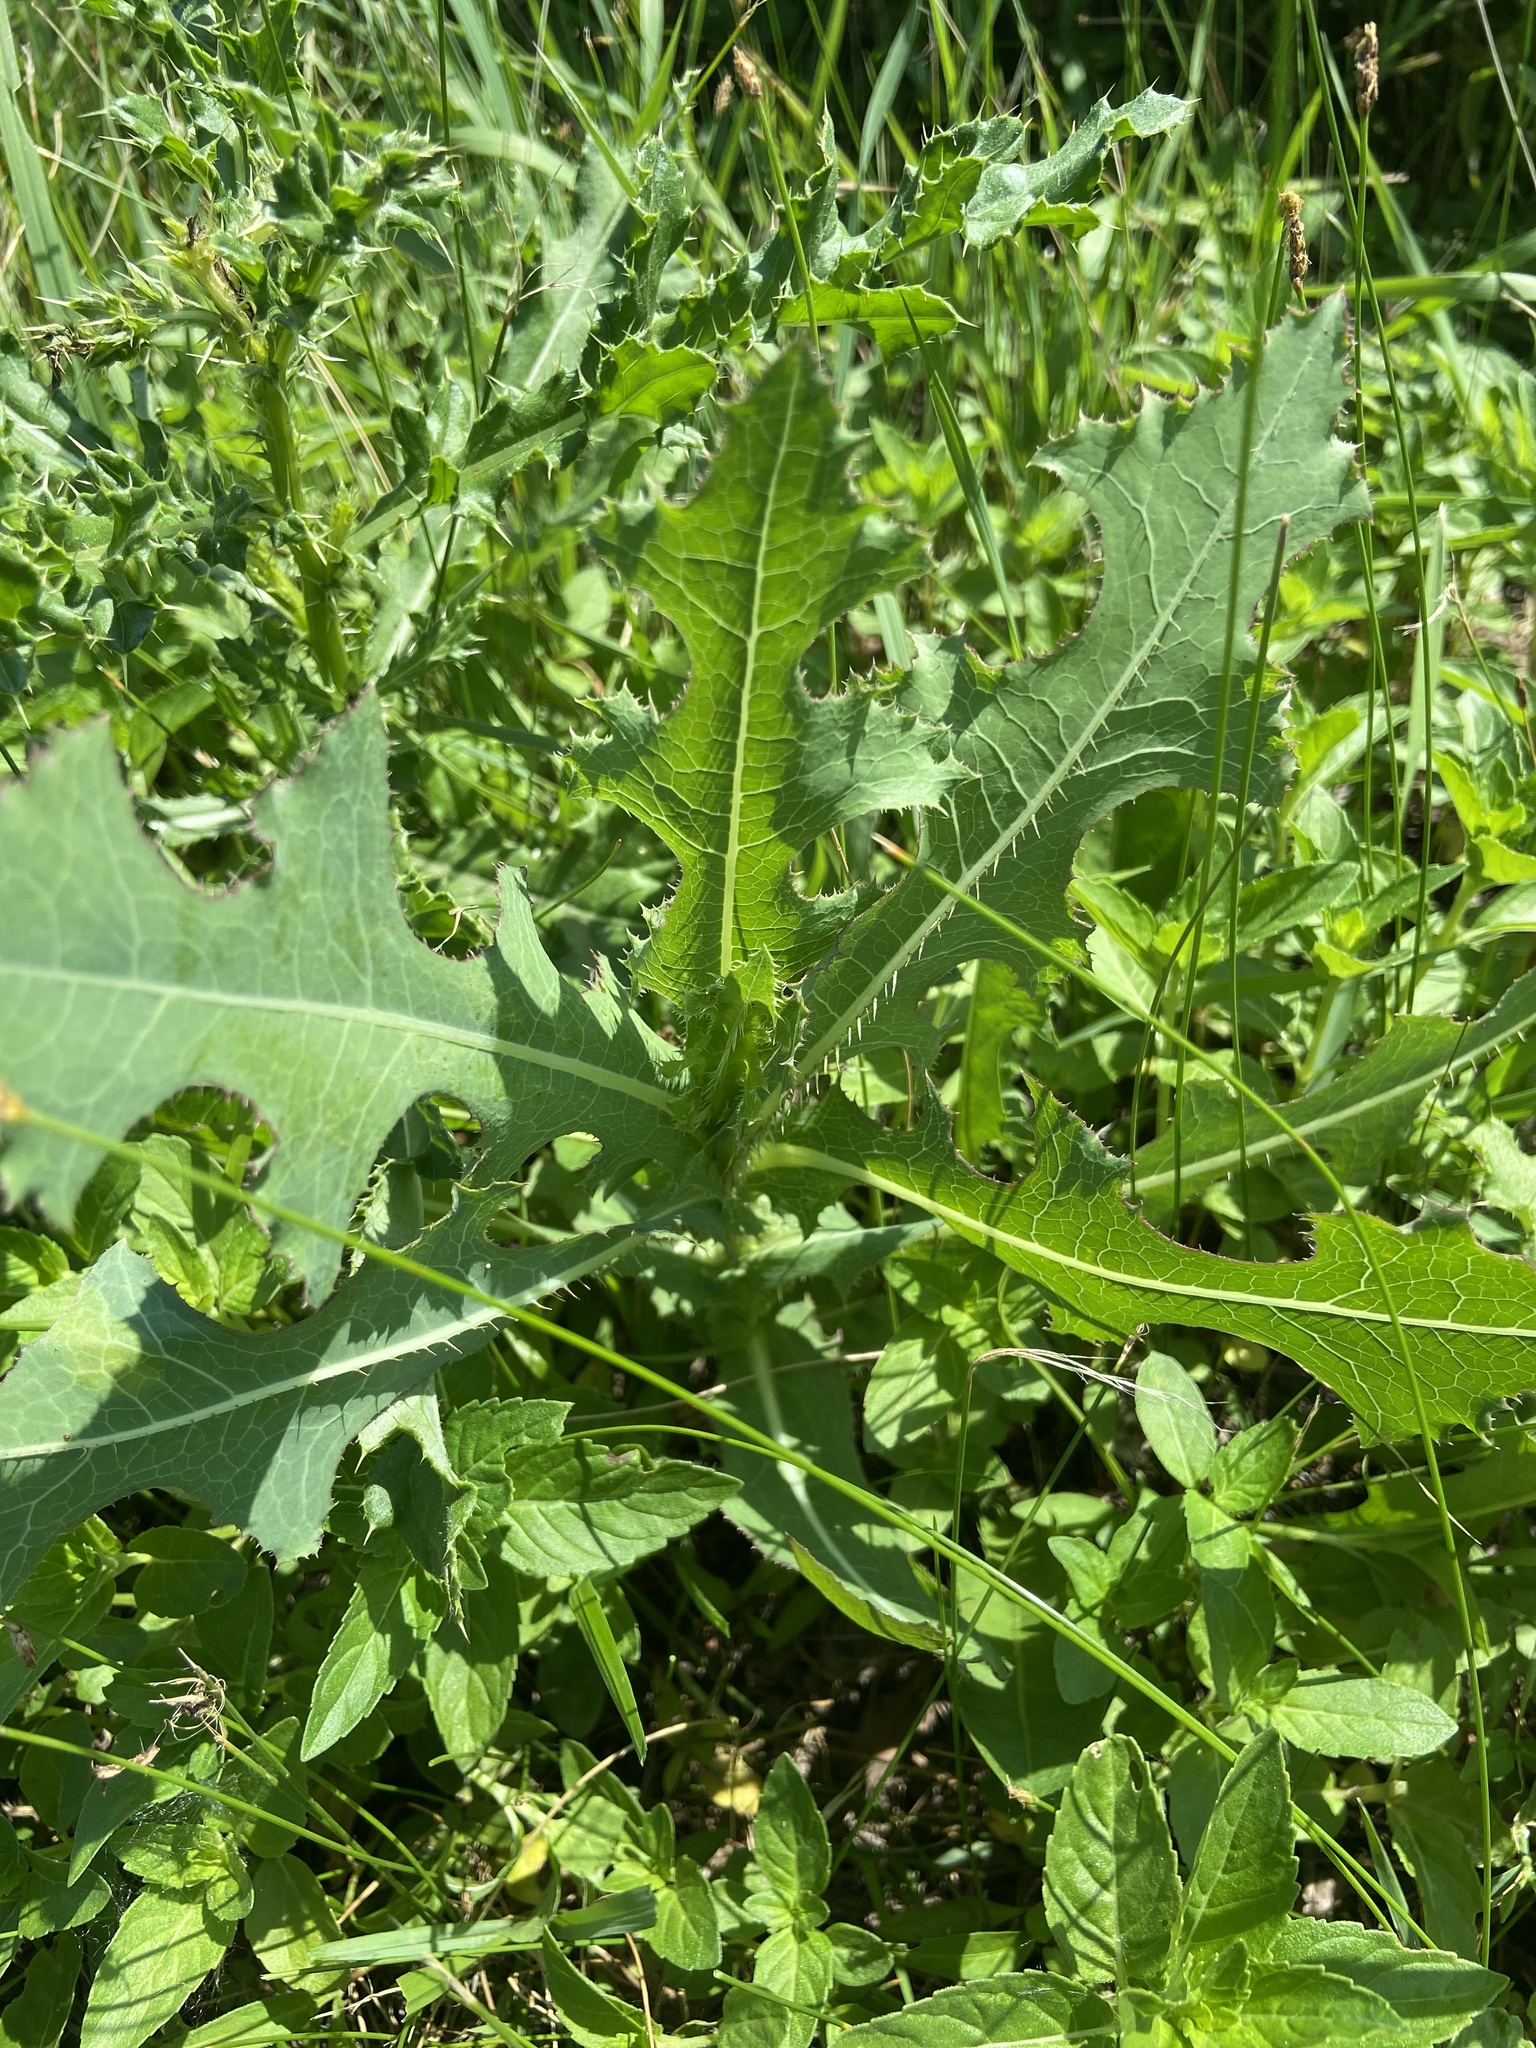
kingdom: Plantae
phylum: Tracheophyta
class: Magnoliopsida
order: Asterales
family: Asteraceae
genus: Lactuca
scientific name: Lactuca serriola
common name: Prickly lettuce
